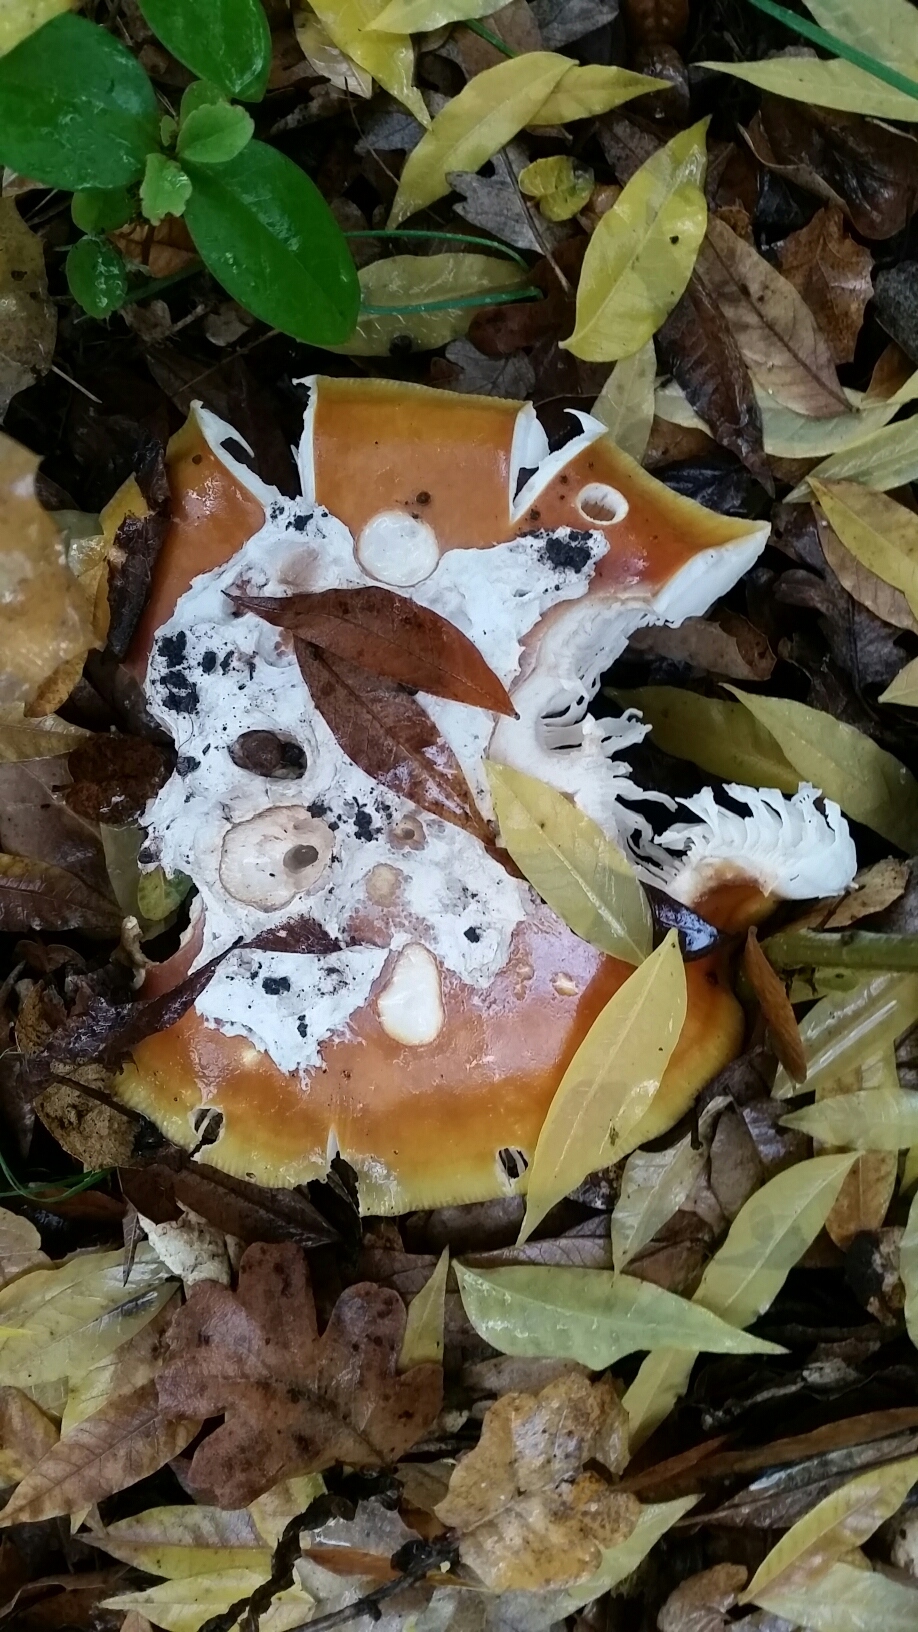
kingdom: Fungi
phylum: Basidiomycota
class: Agaricomycetes
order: Agaricales
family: Amanitaceae
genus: Amanita
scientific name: Amanita calyptroderma
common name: Coccora
